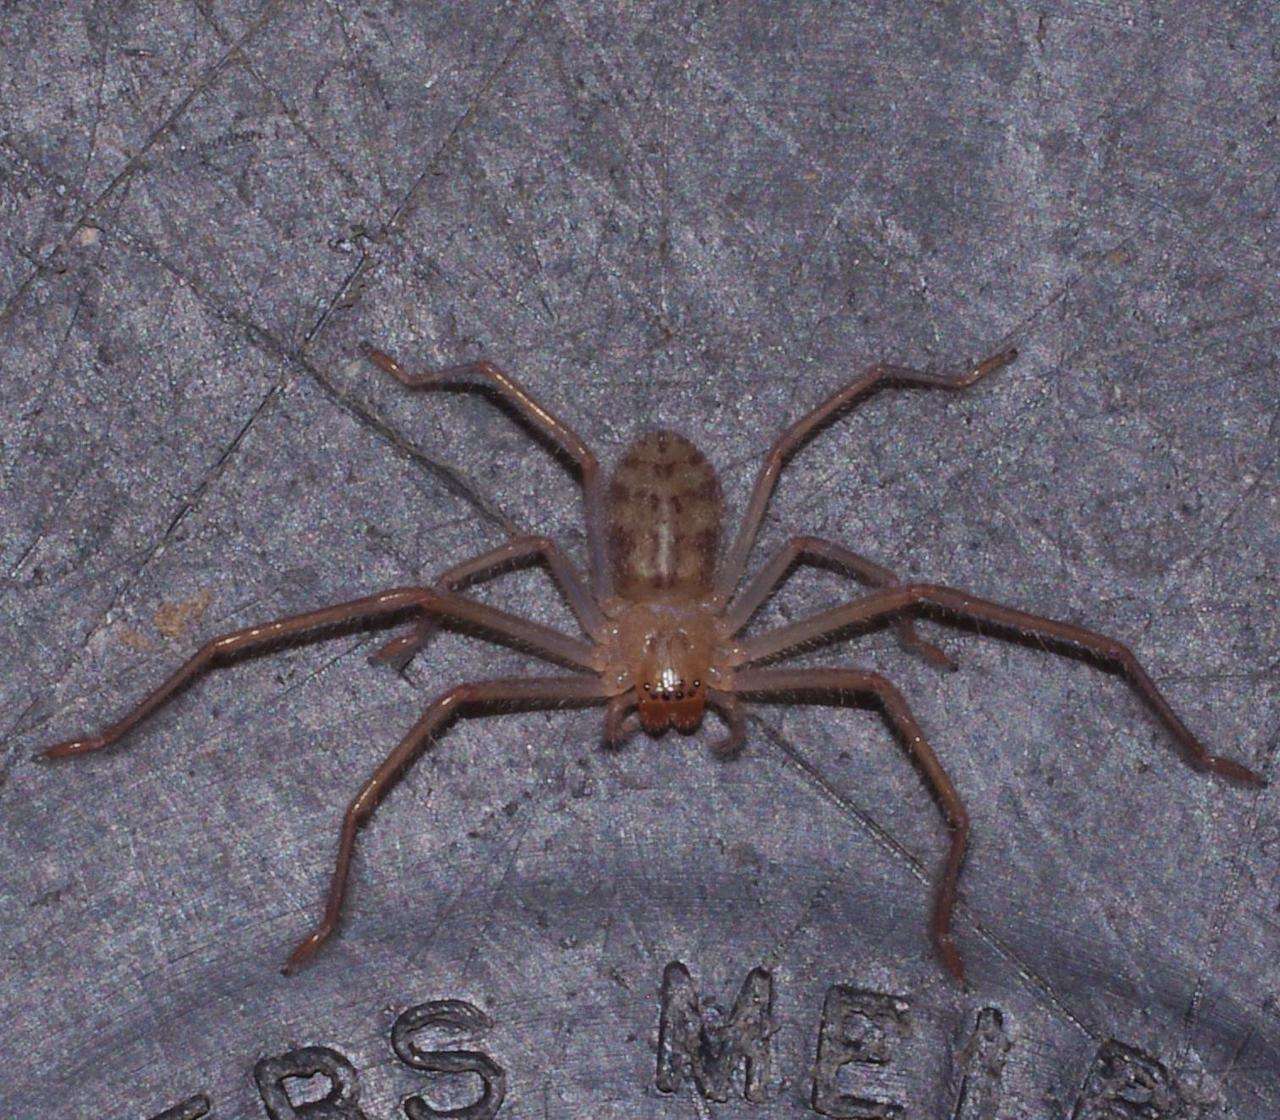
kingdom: Animalia
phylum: Arthropoda
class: Arachnida
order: Araneae
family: Sparassidae
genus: Delena
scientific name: Delena cancerides
